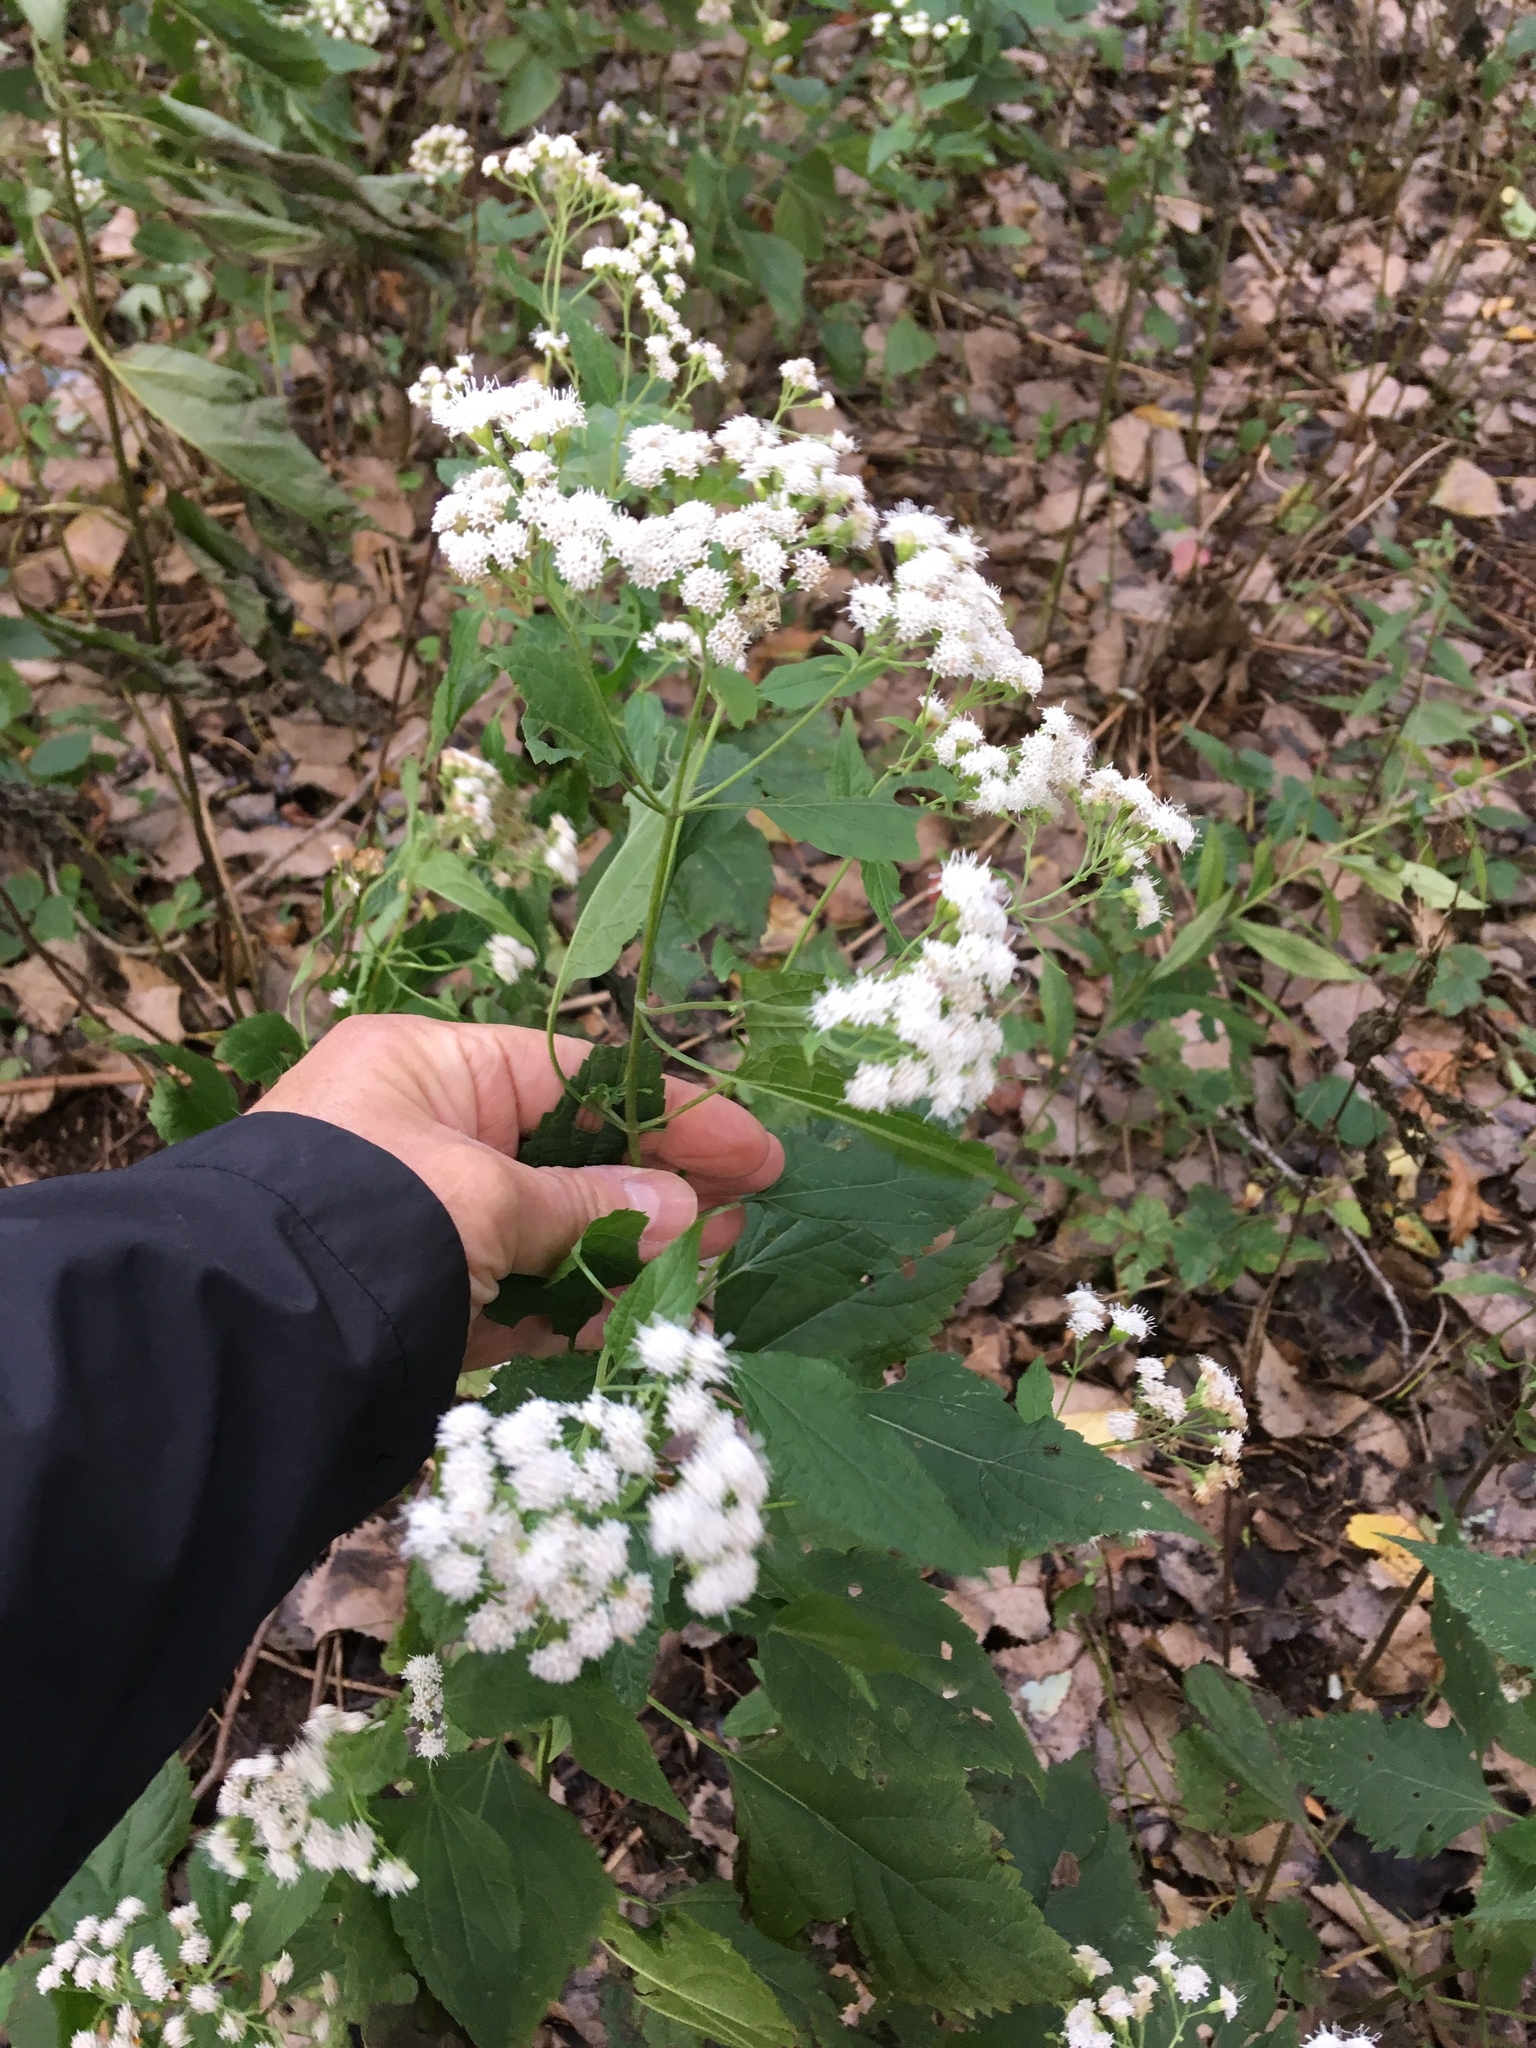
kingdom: Plantae
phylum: Tracheophyta
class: Magnoliopsida
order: Asterales
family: Asteraceae
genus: Ageratina
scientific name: Ageratina altissima
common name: White snakeroot
